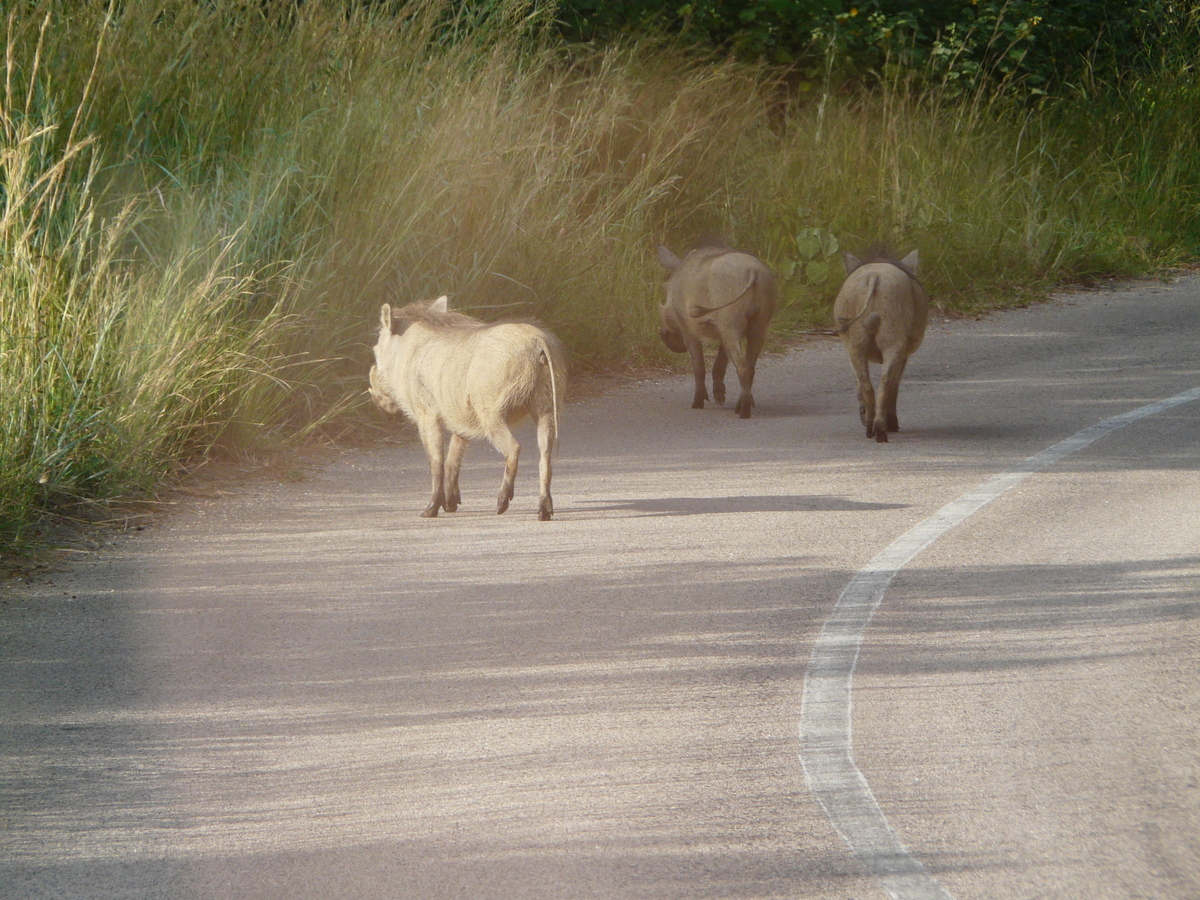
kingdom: Animalia
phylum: Chordata
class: Mammalia
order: Artiodactyla
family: Suidae
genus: Phacochoerus
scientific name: Phacochoerus africanus
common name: Common warthog
